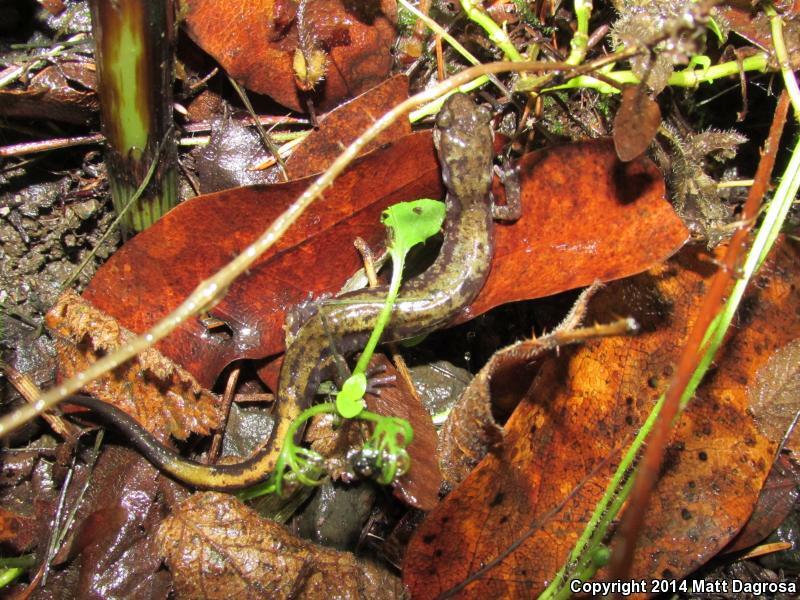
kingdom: Animalia
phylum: Chordata
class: Amphibia
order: Caudata
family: Plethodontidae
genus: Plethodon
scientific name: Plethodon dunni
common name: Dunn's salamander
